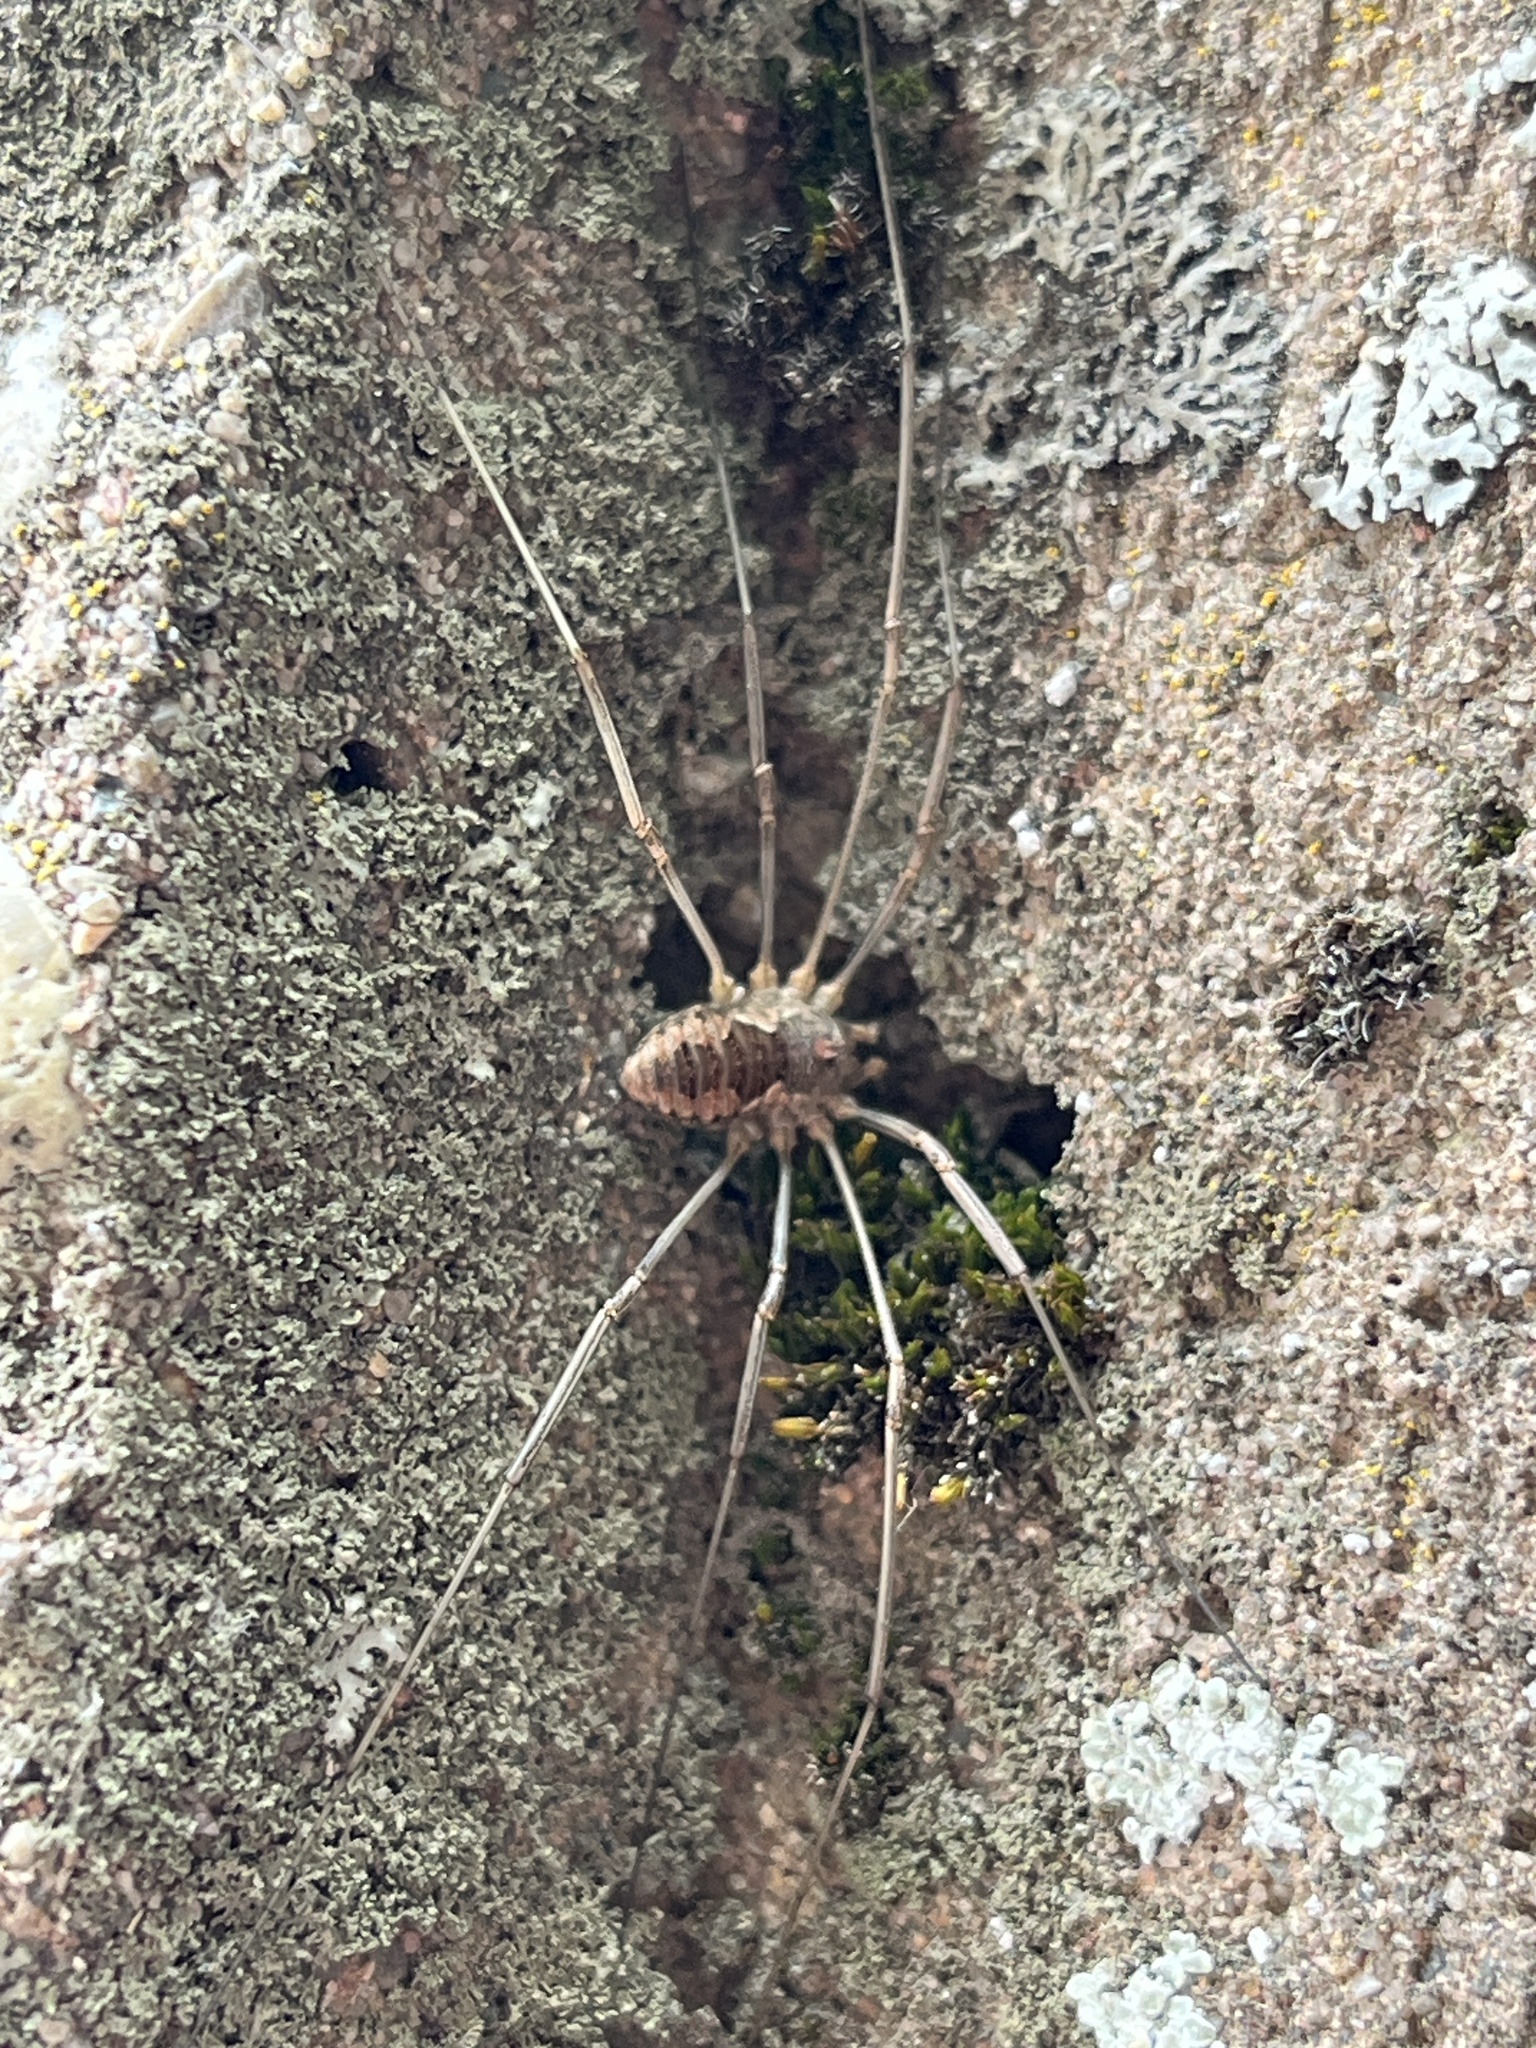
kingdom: Animalia
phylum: Arthropoda
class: Arachnida
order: Opiliones
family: Phalangiidae
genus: Phalangium
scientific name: Phalangium opilio
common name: Daddy longleg
